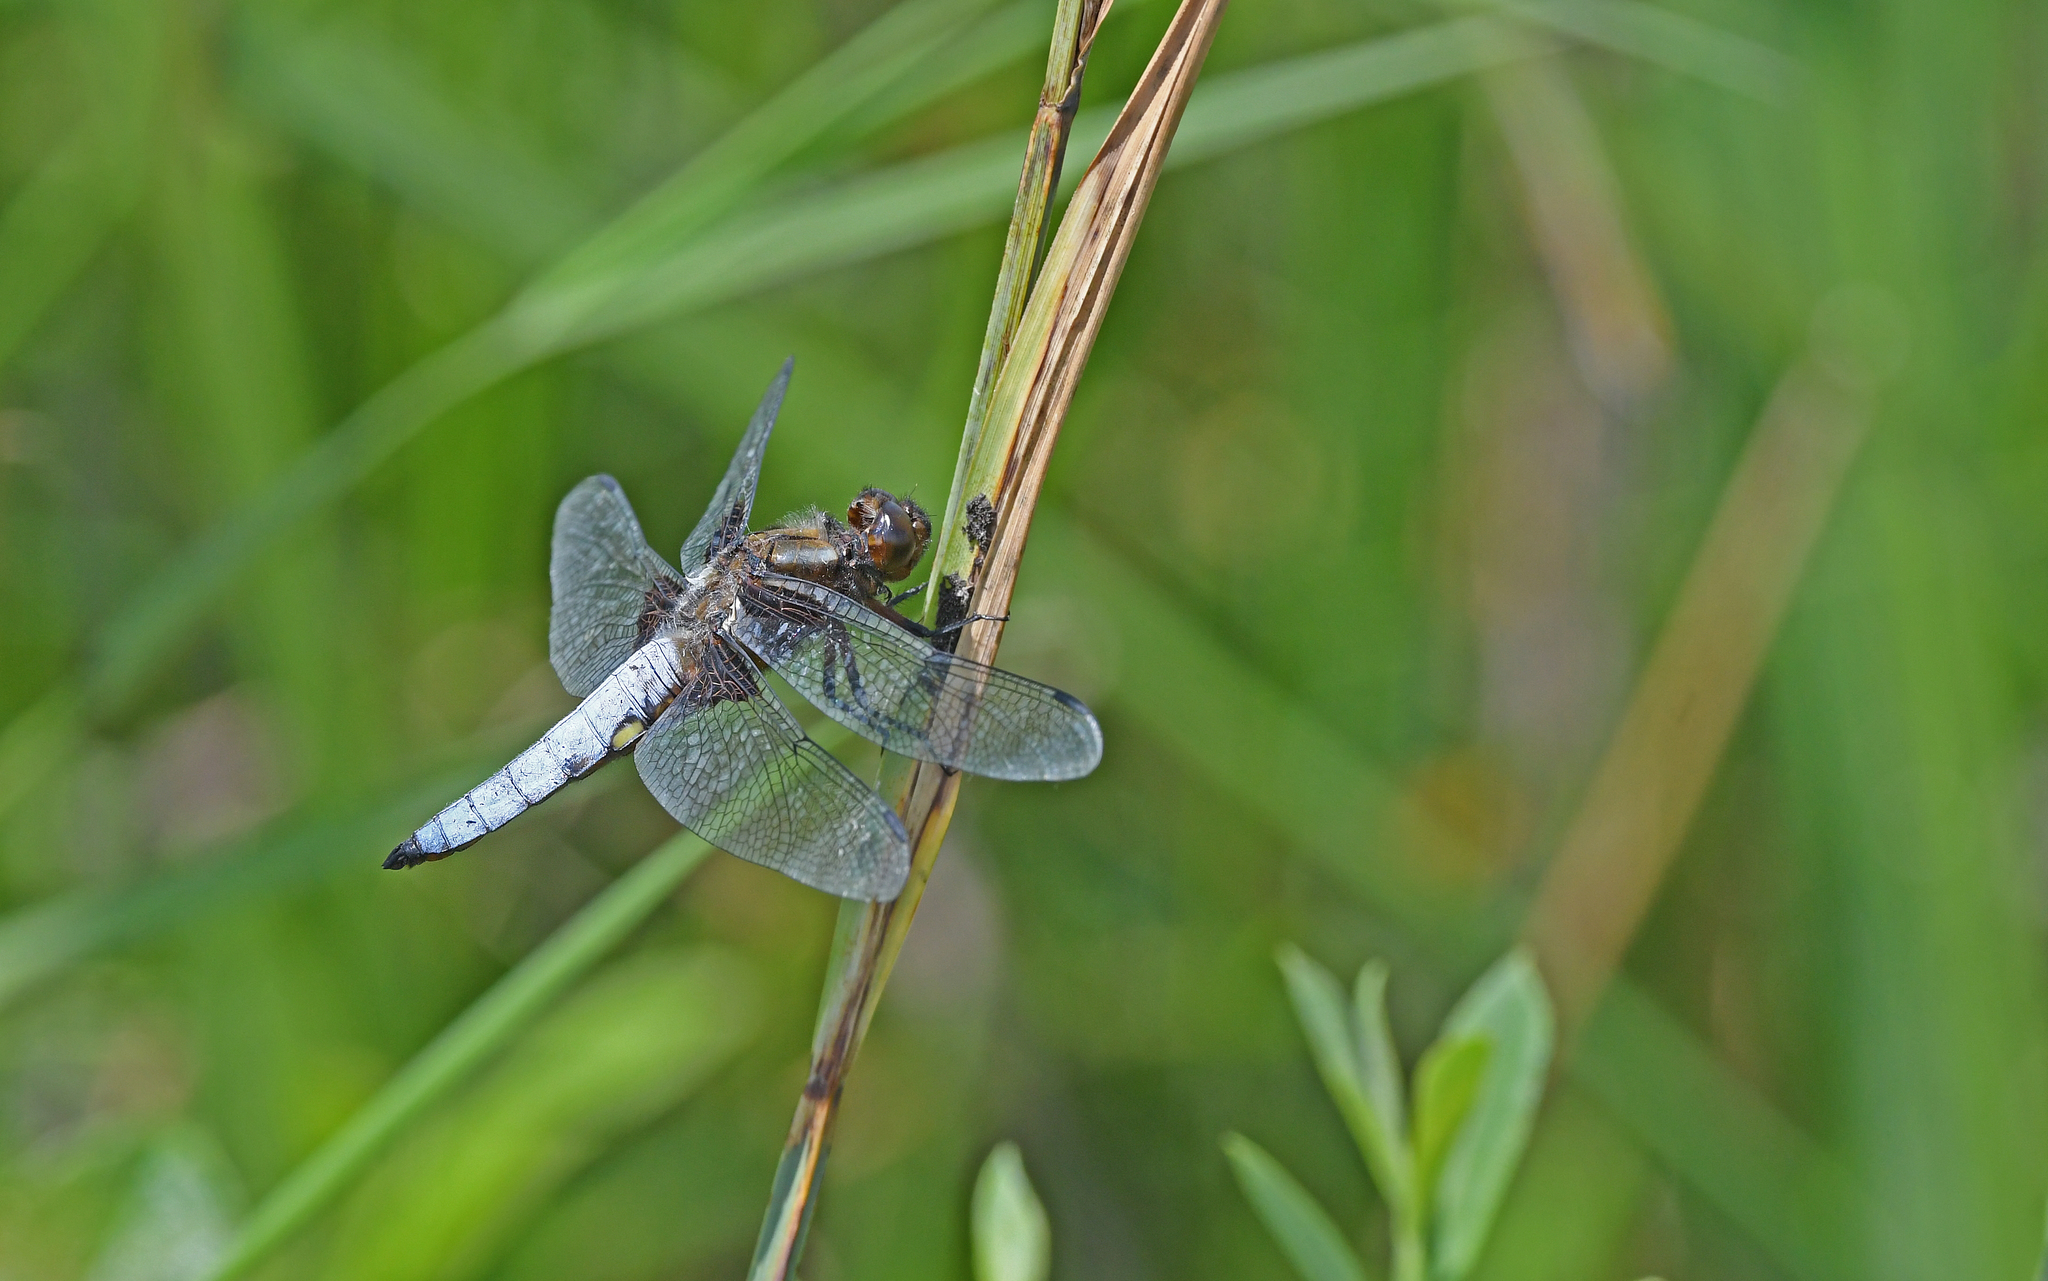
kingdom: Animalia
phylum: Arthropoda
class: Insecta
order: Odonata
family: Libellulidae
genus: Libellula
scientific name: Libellula depressa
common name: Broad-bodied chaser
